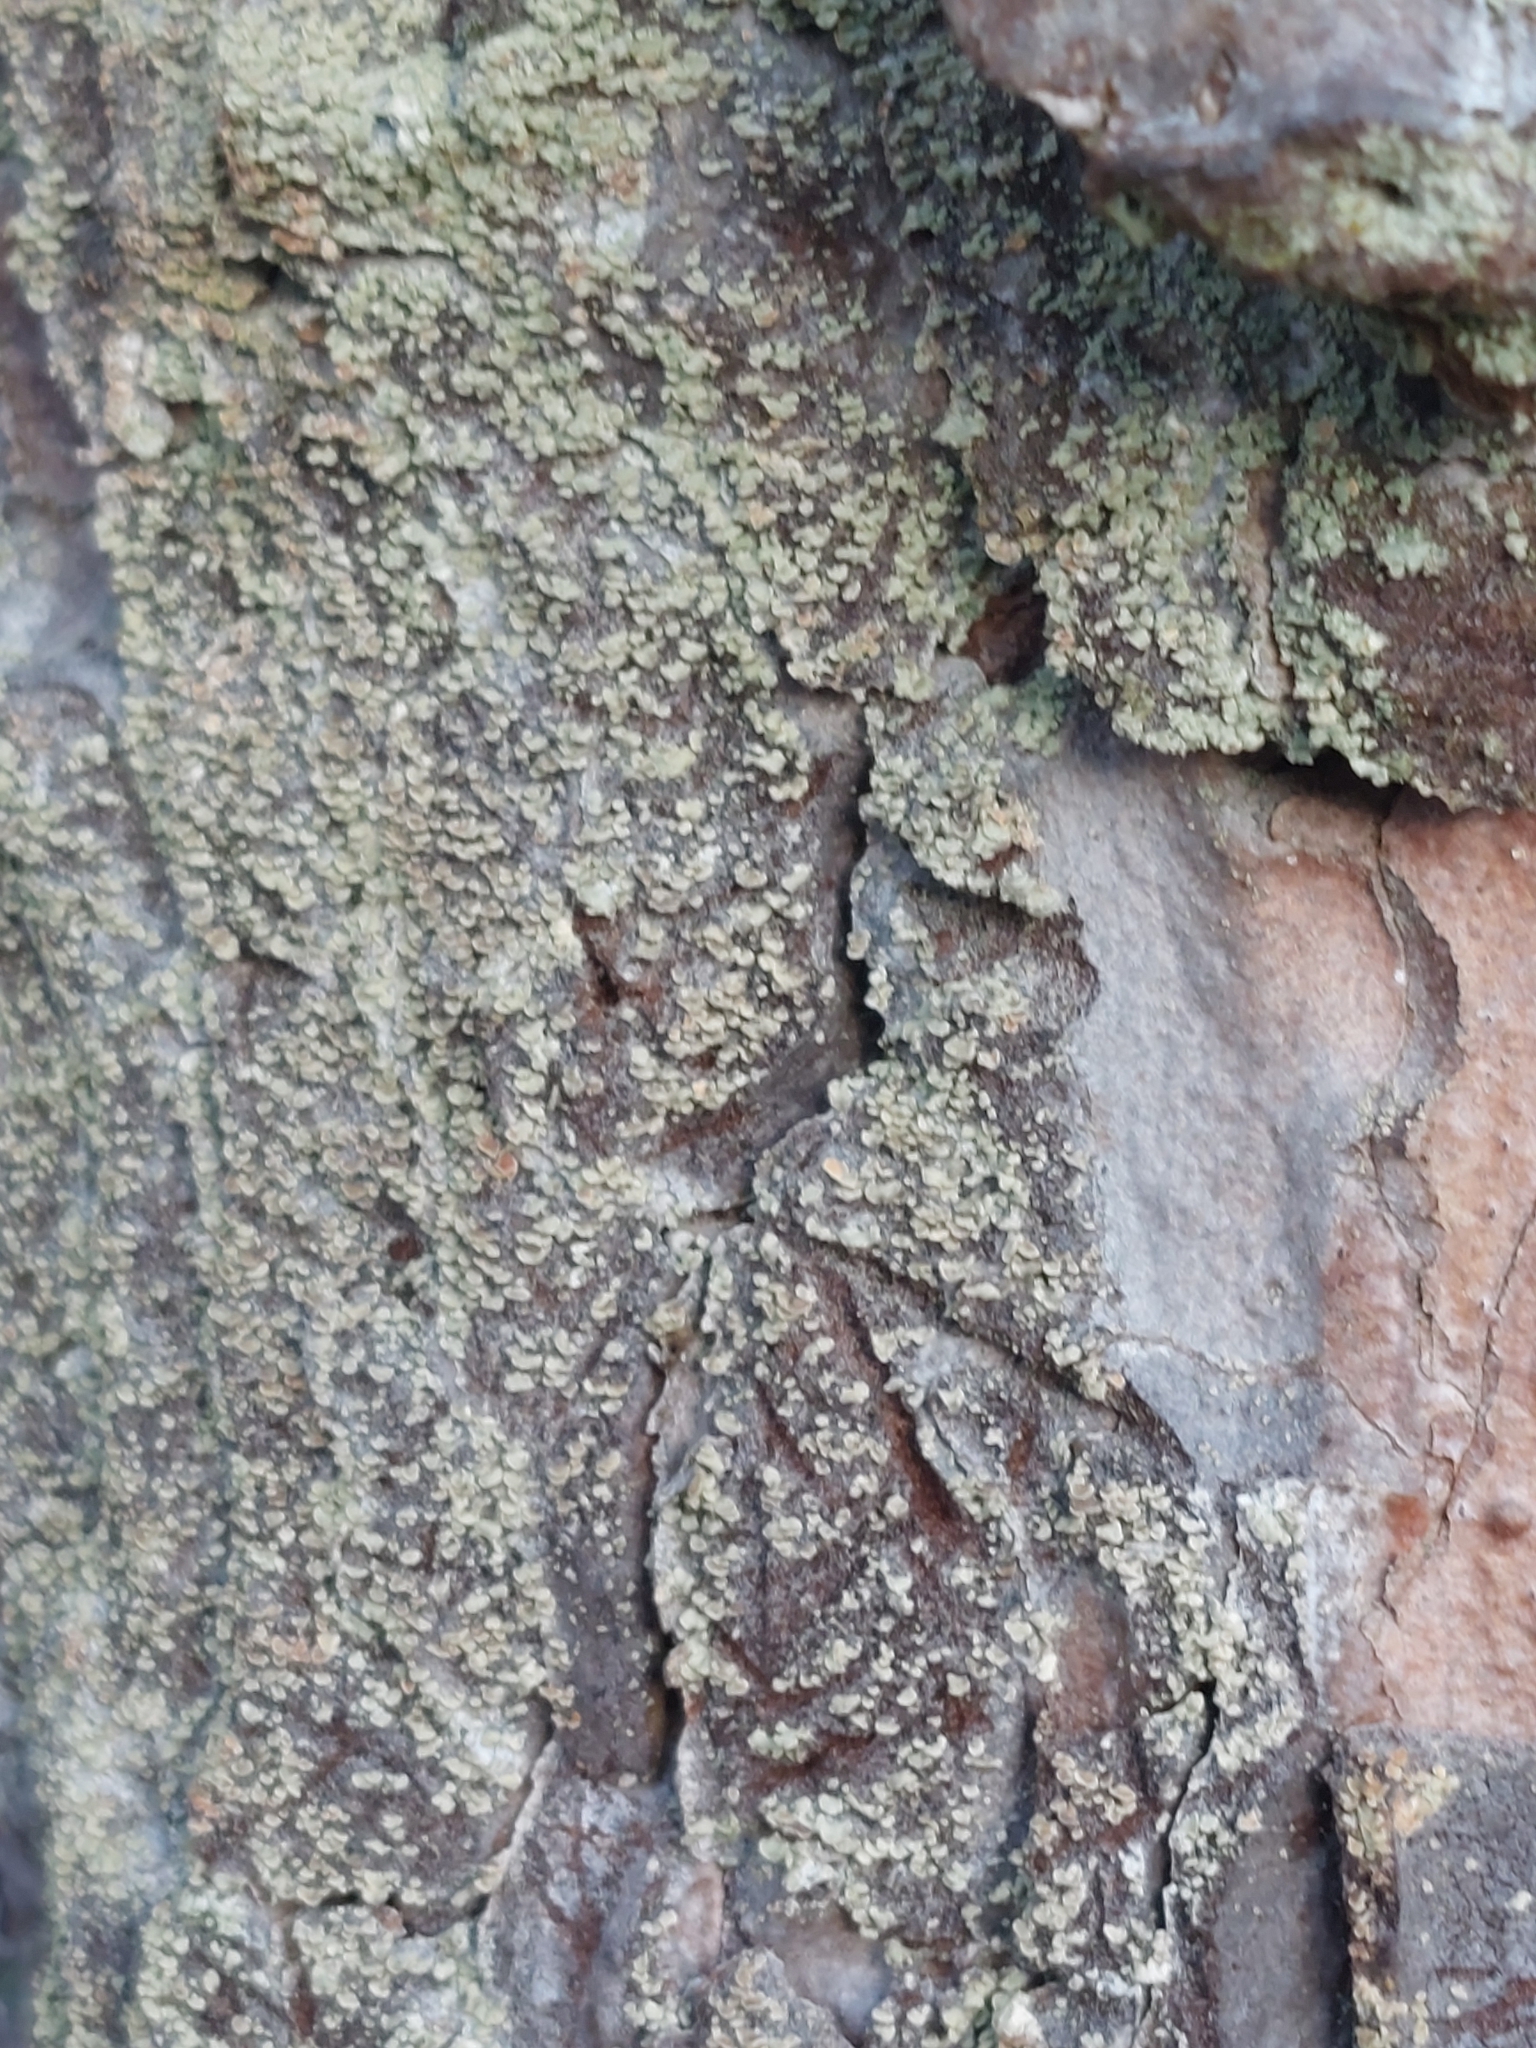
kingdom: Fungi
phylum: Ascomycota
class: Lecanoromycetes
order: Umbilicariales
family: Ophioparmaceae
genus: Hypocenomyce
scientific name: Hypocenomyce scalaris
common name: Common clam lichen
